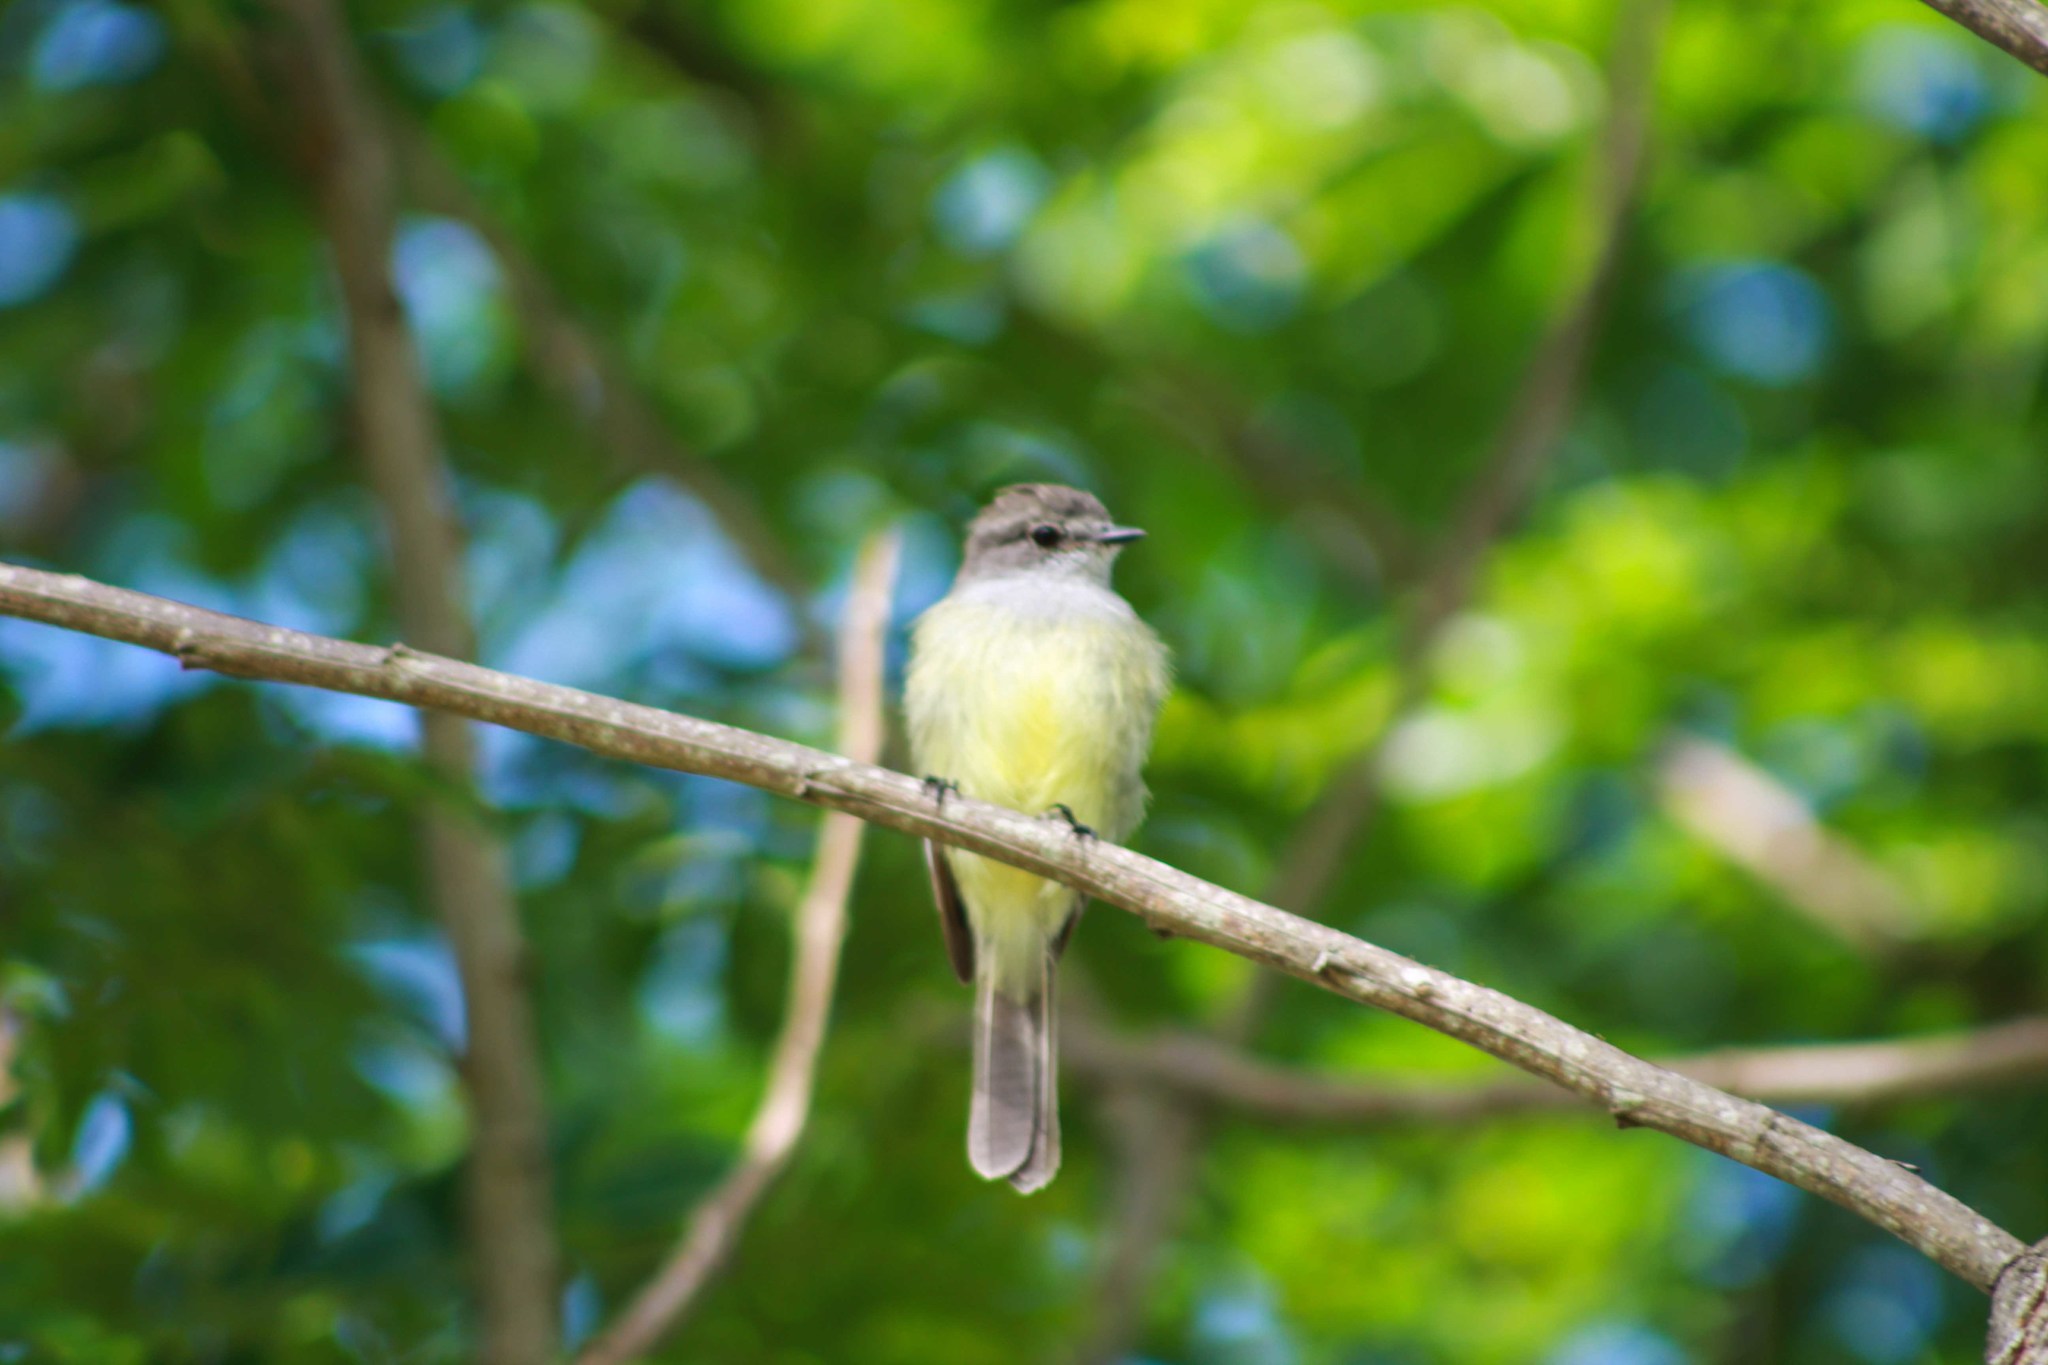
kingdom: Animalia
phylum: Chordata
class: Aves
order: Passeriformes
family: Tyrannidae
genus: Sublegatus
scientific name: Sublegatus arenarum
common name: Northern scrub-flycatcher
